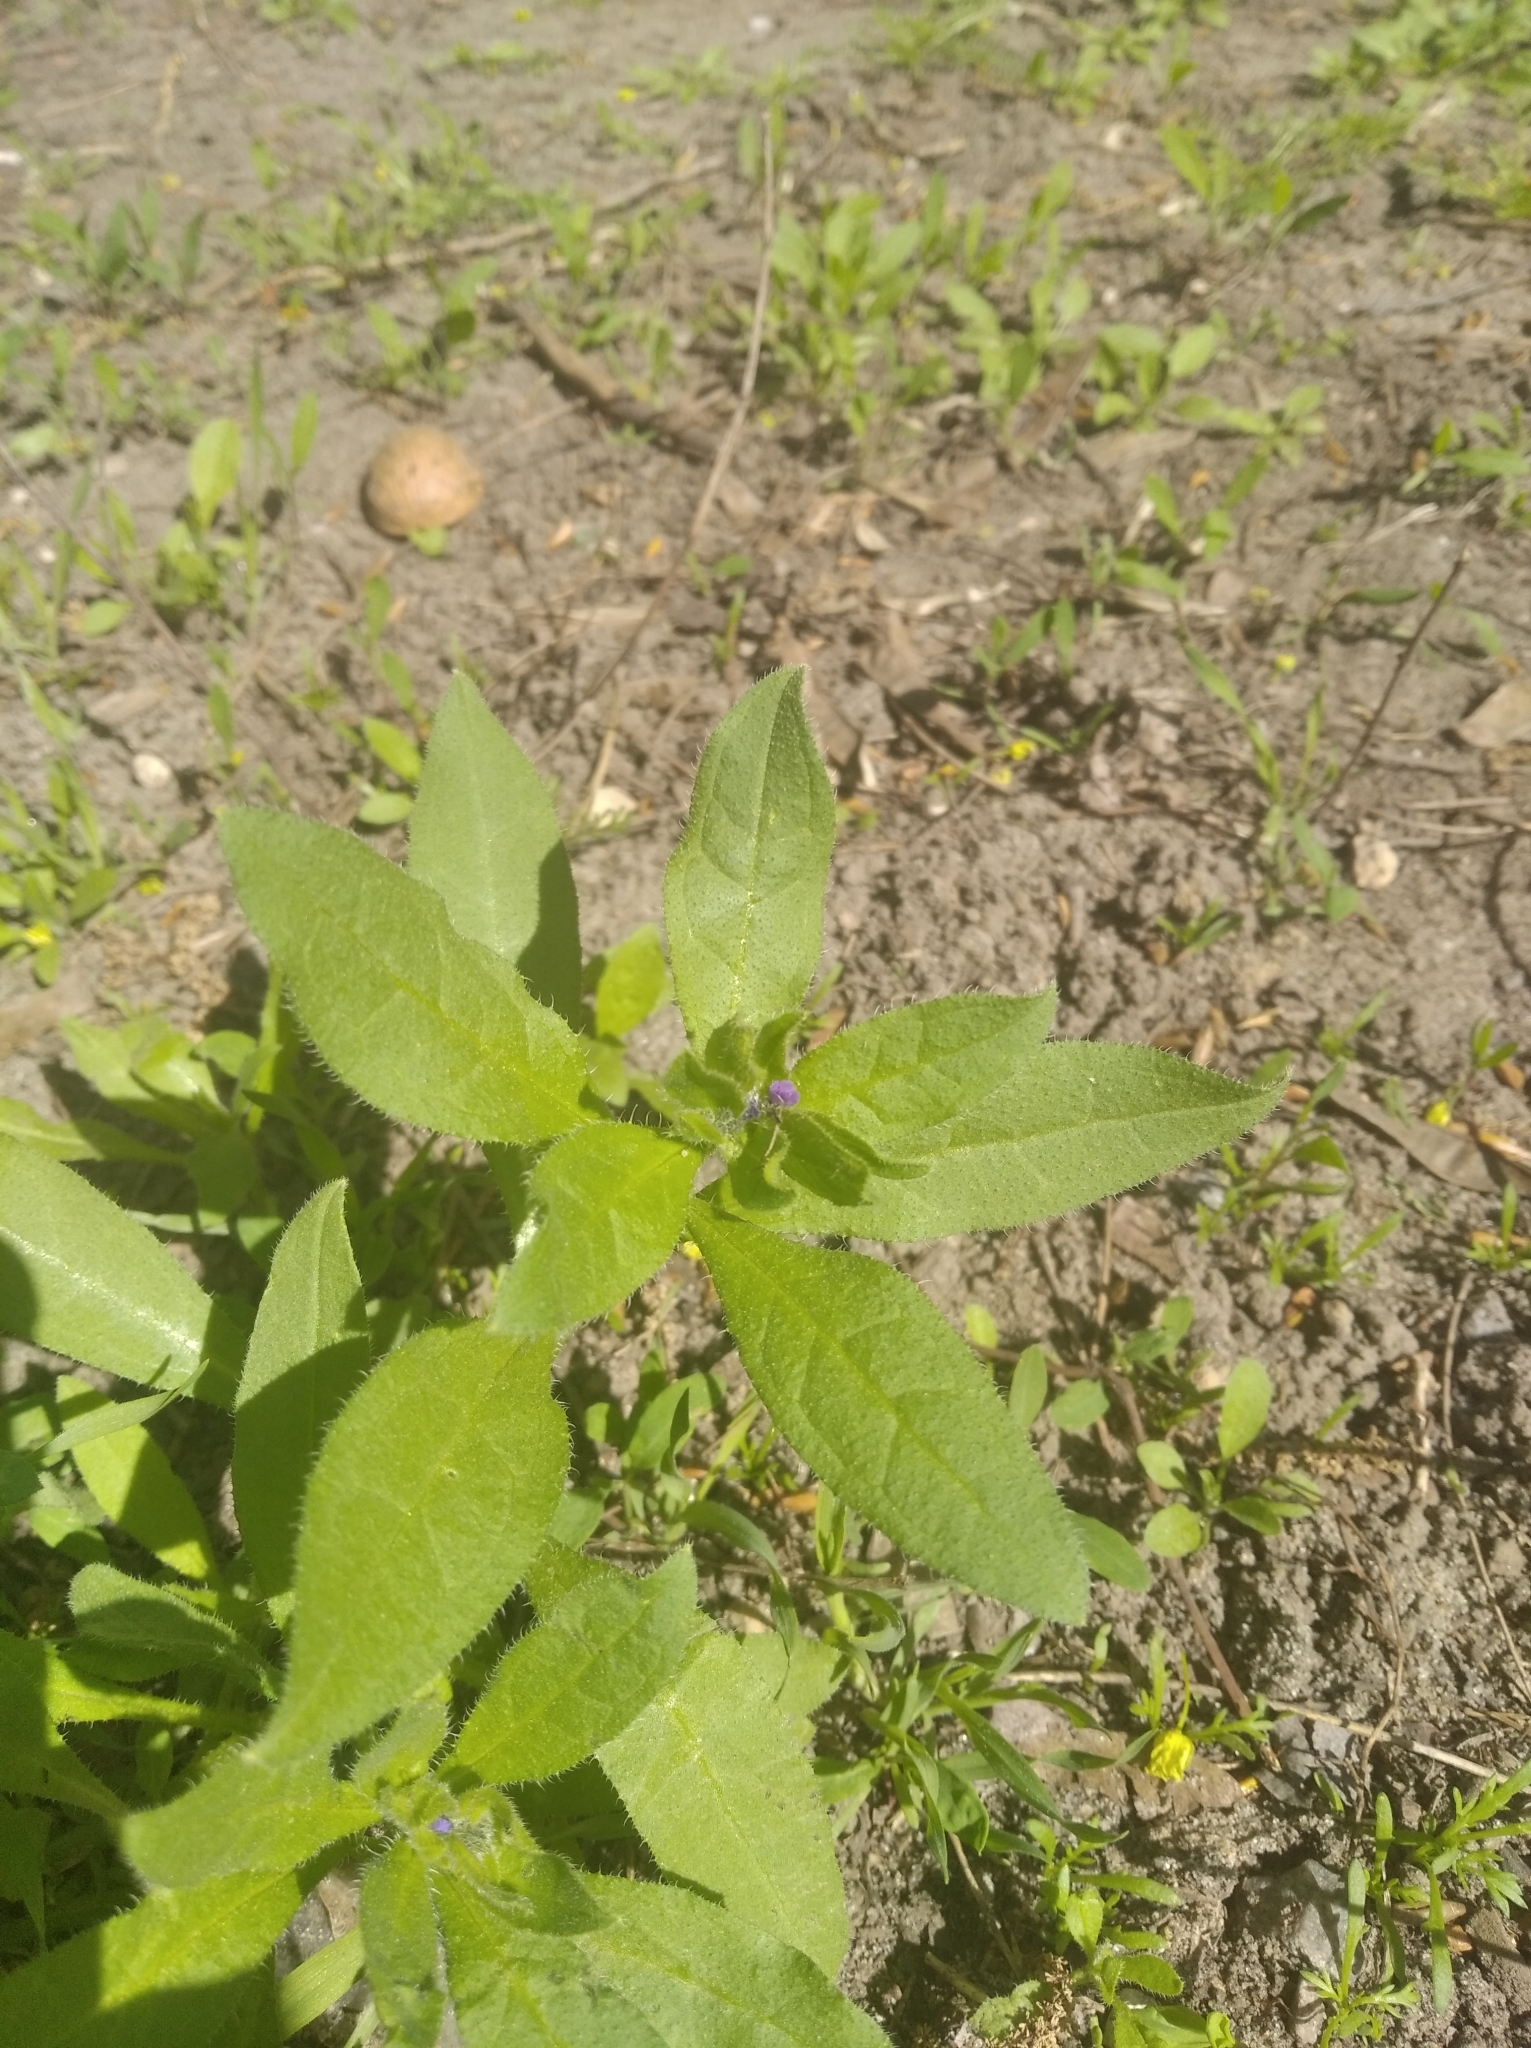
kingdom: Plantae
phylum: Tracheophyta
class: Magnoliopsida
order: Boraginales
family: Boraginaceae
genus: Asperugo
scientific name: Asperugo procumbens
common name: Madwort
